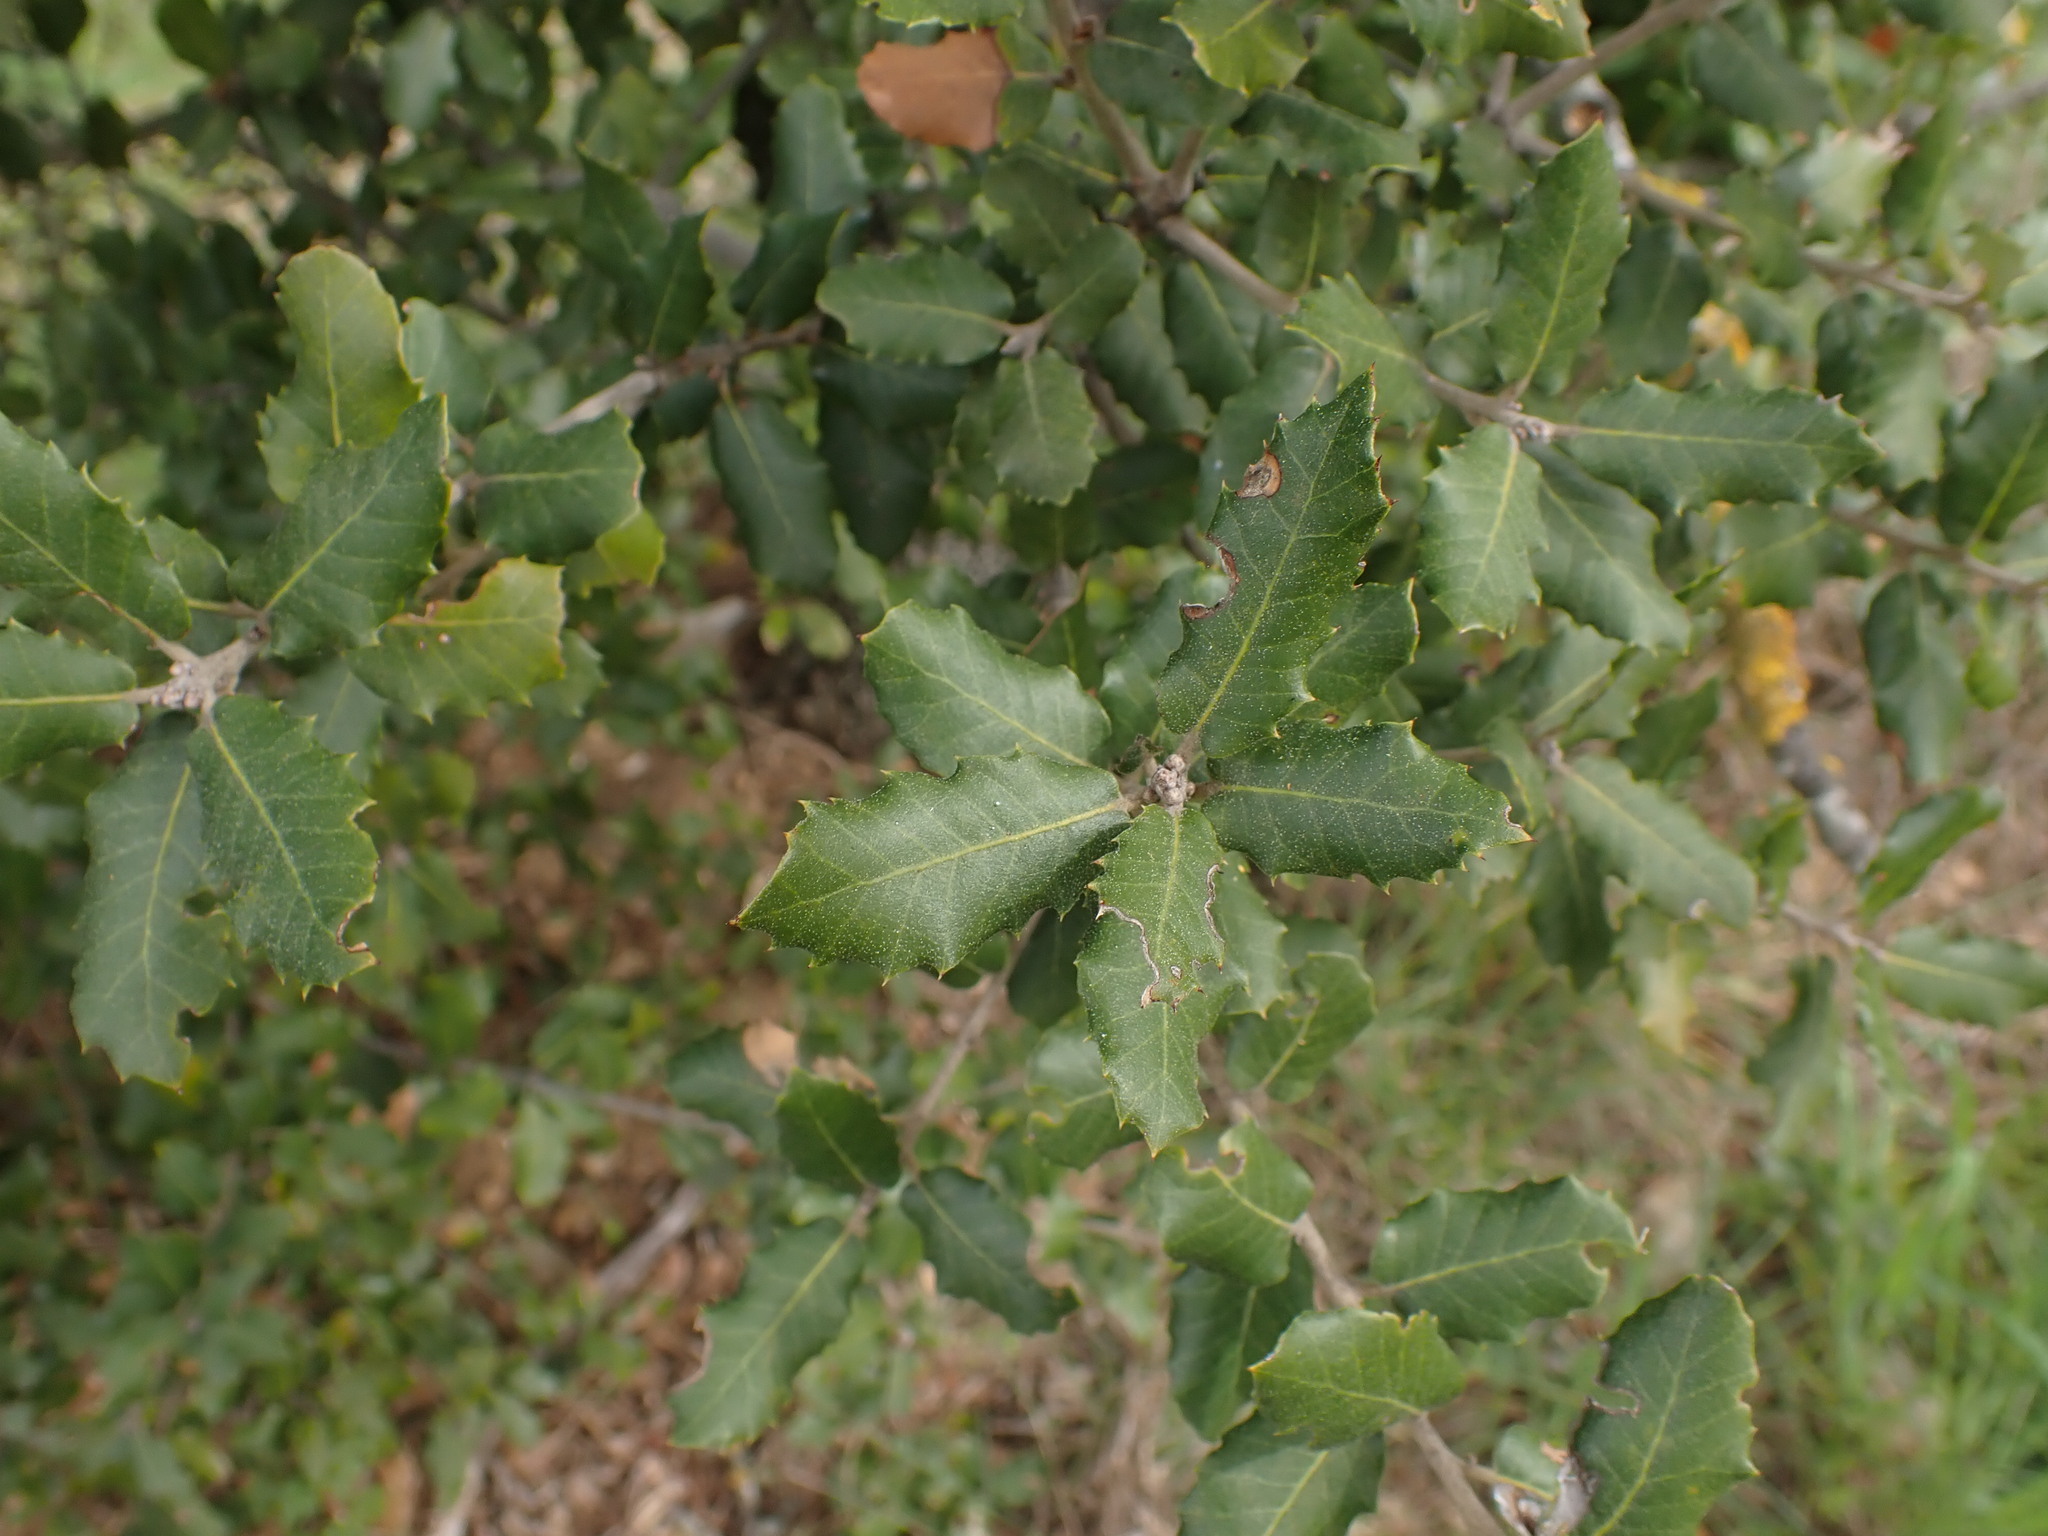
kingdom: Plantae
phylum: Tracheophyta
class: Magnoliopsida
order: Fagales
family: Fagaceae
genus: Quercus
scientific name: Quercus ilex
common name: Evergreen oak
